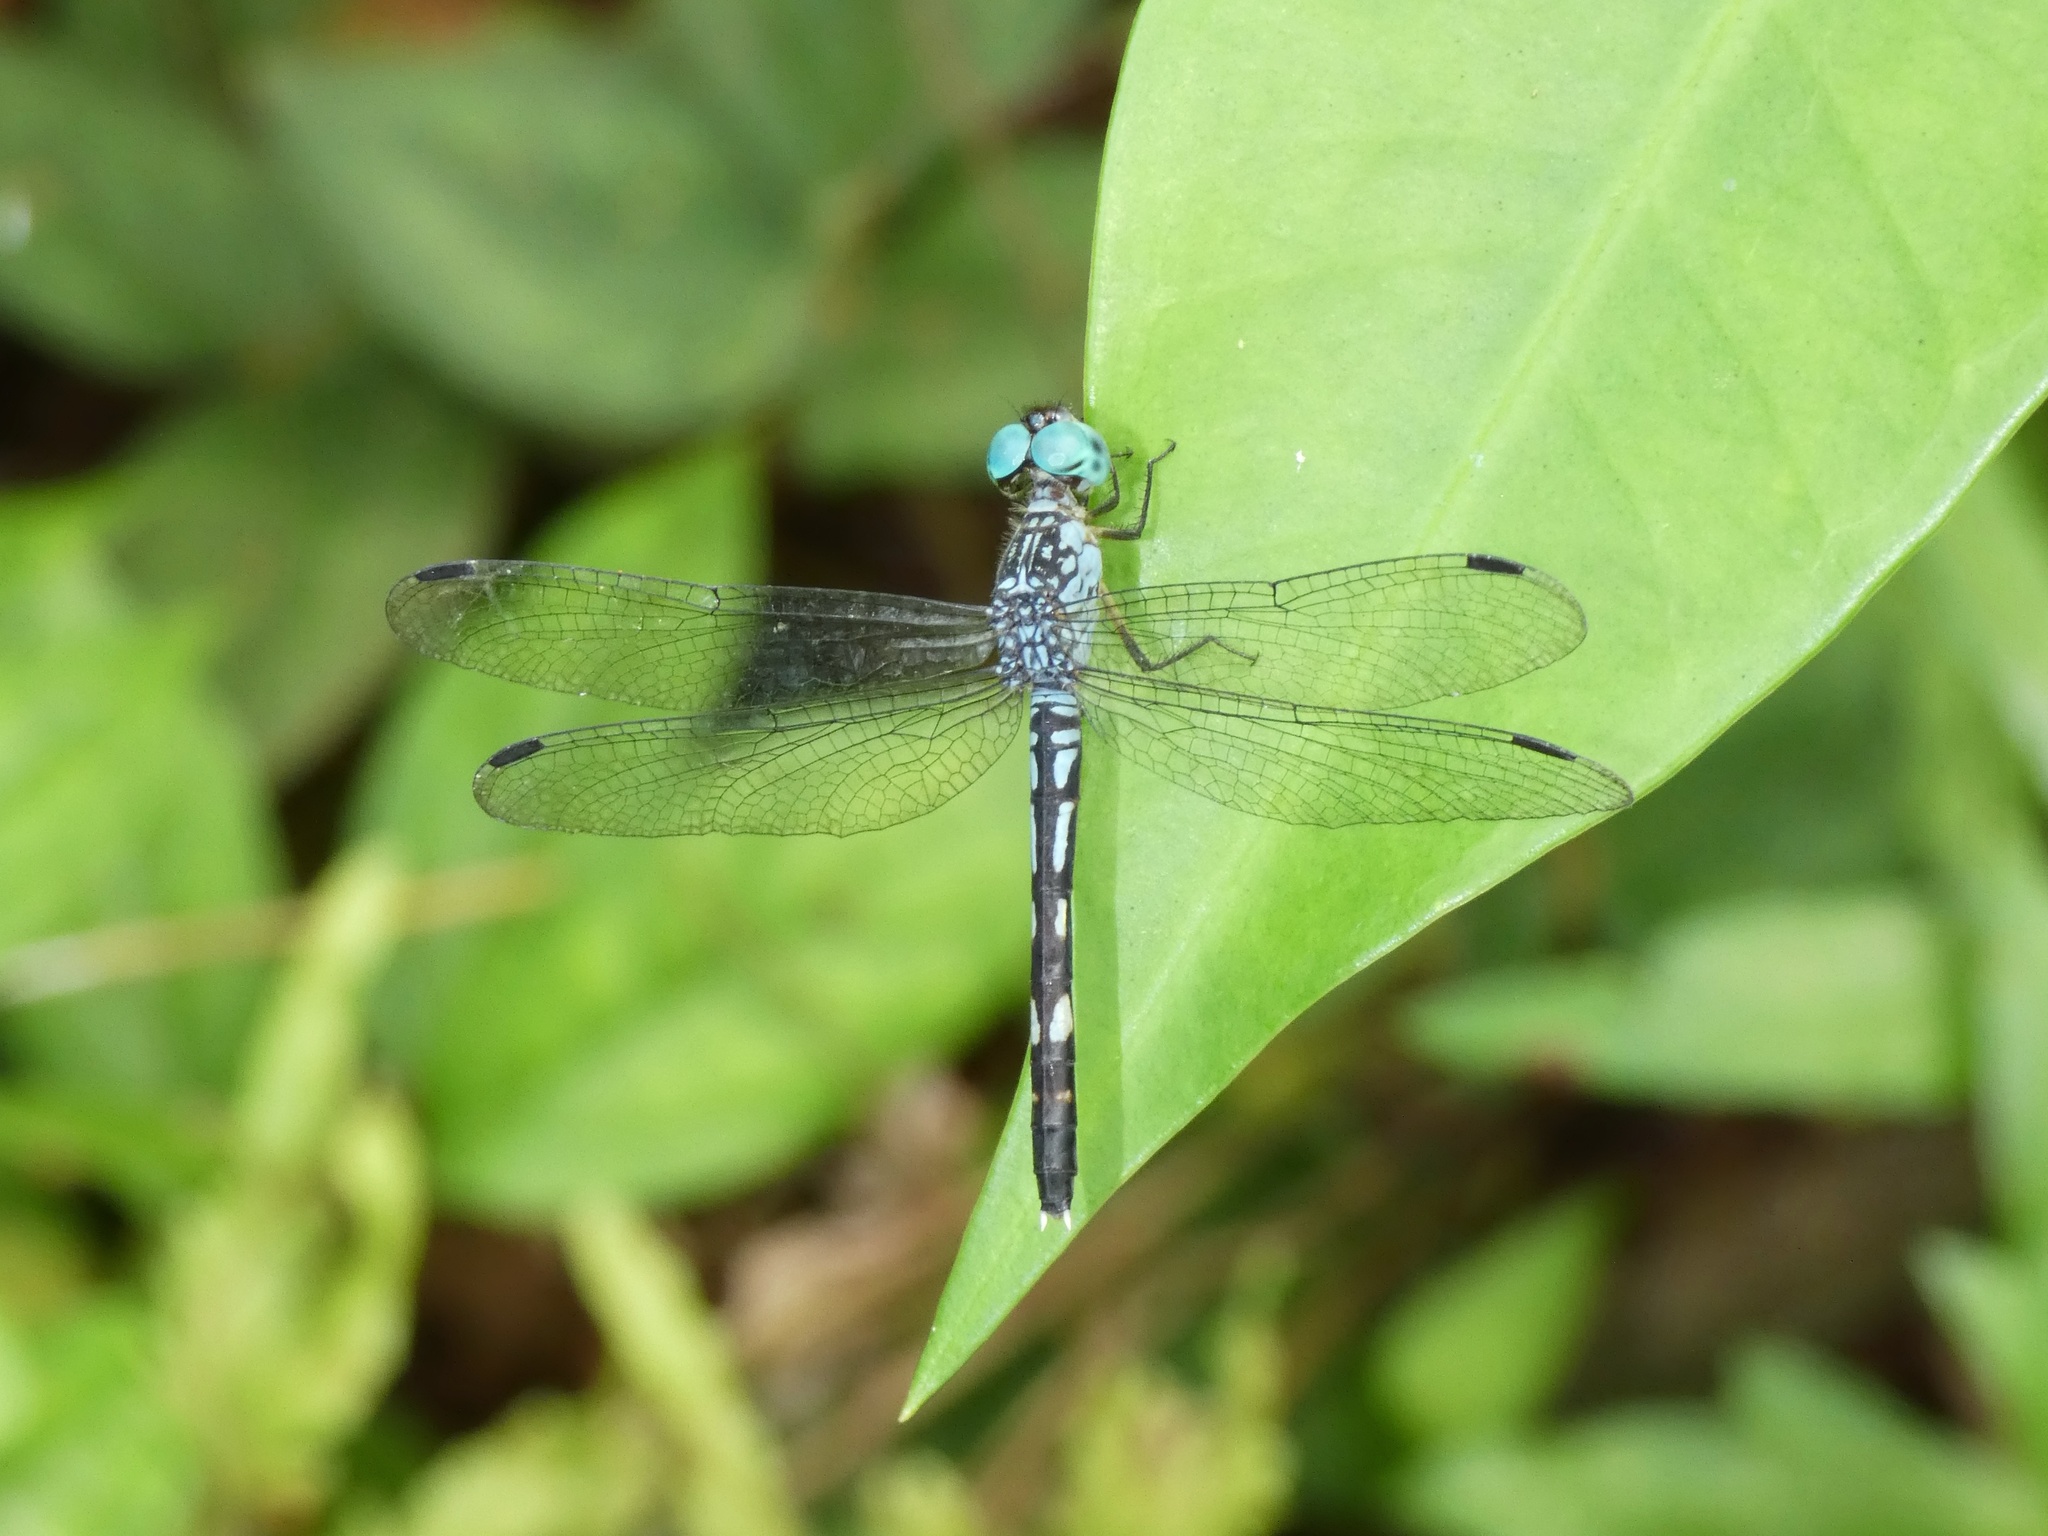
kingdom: Animalia
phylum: Arthropoda
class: Insecta
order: Odonata
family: Libellulidae
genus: Anatya
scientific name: Anatya guttata
